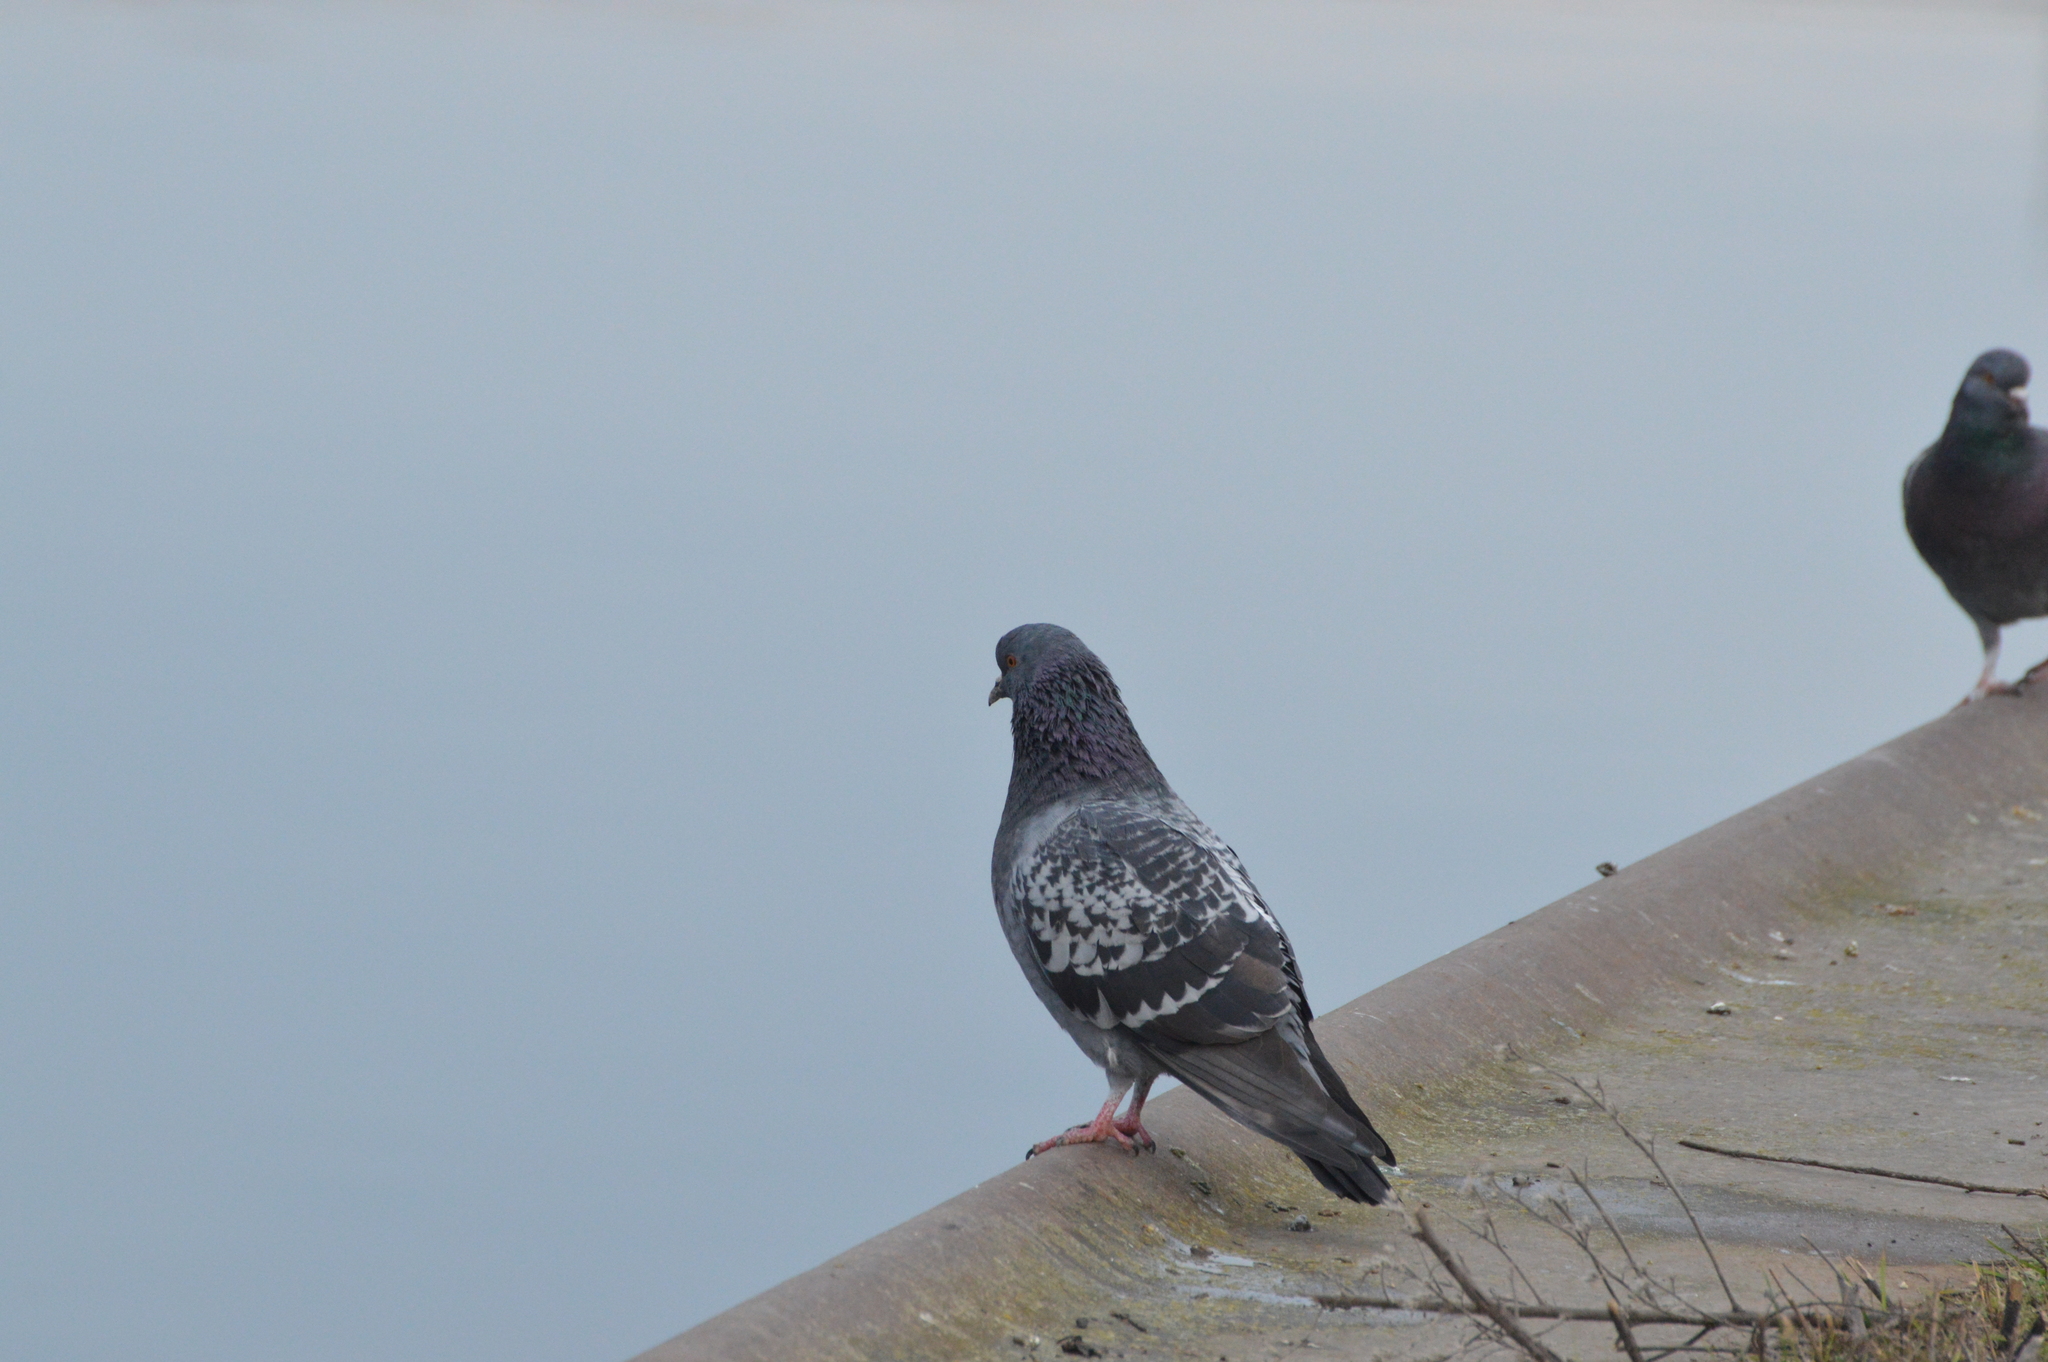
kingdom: Animalia
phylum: Chordata
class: Aves
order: Columbiformes
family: Columbidae
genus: Columba
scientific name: Columba livia
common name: Rock pigeon
